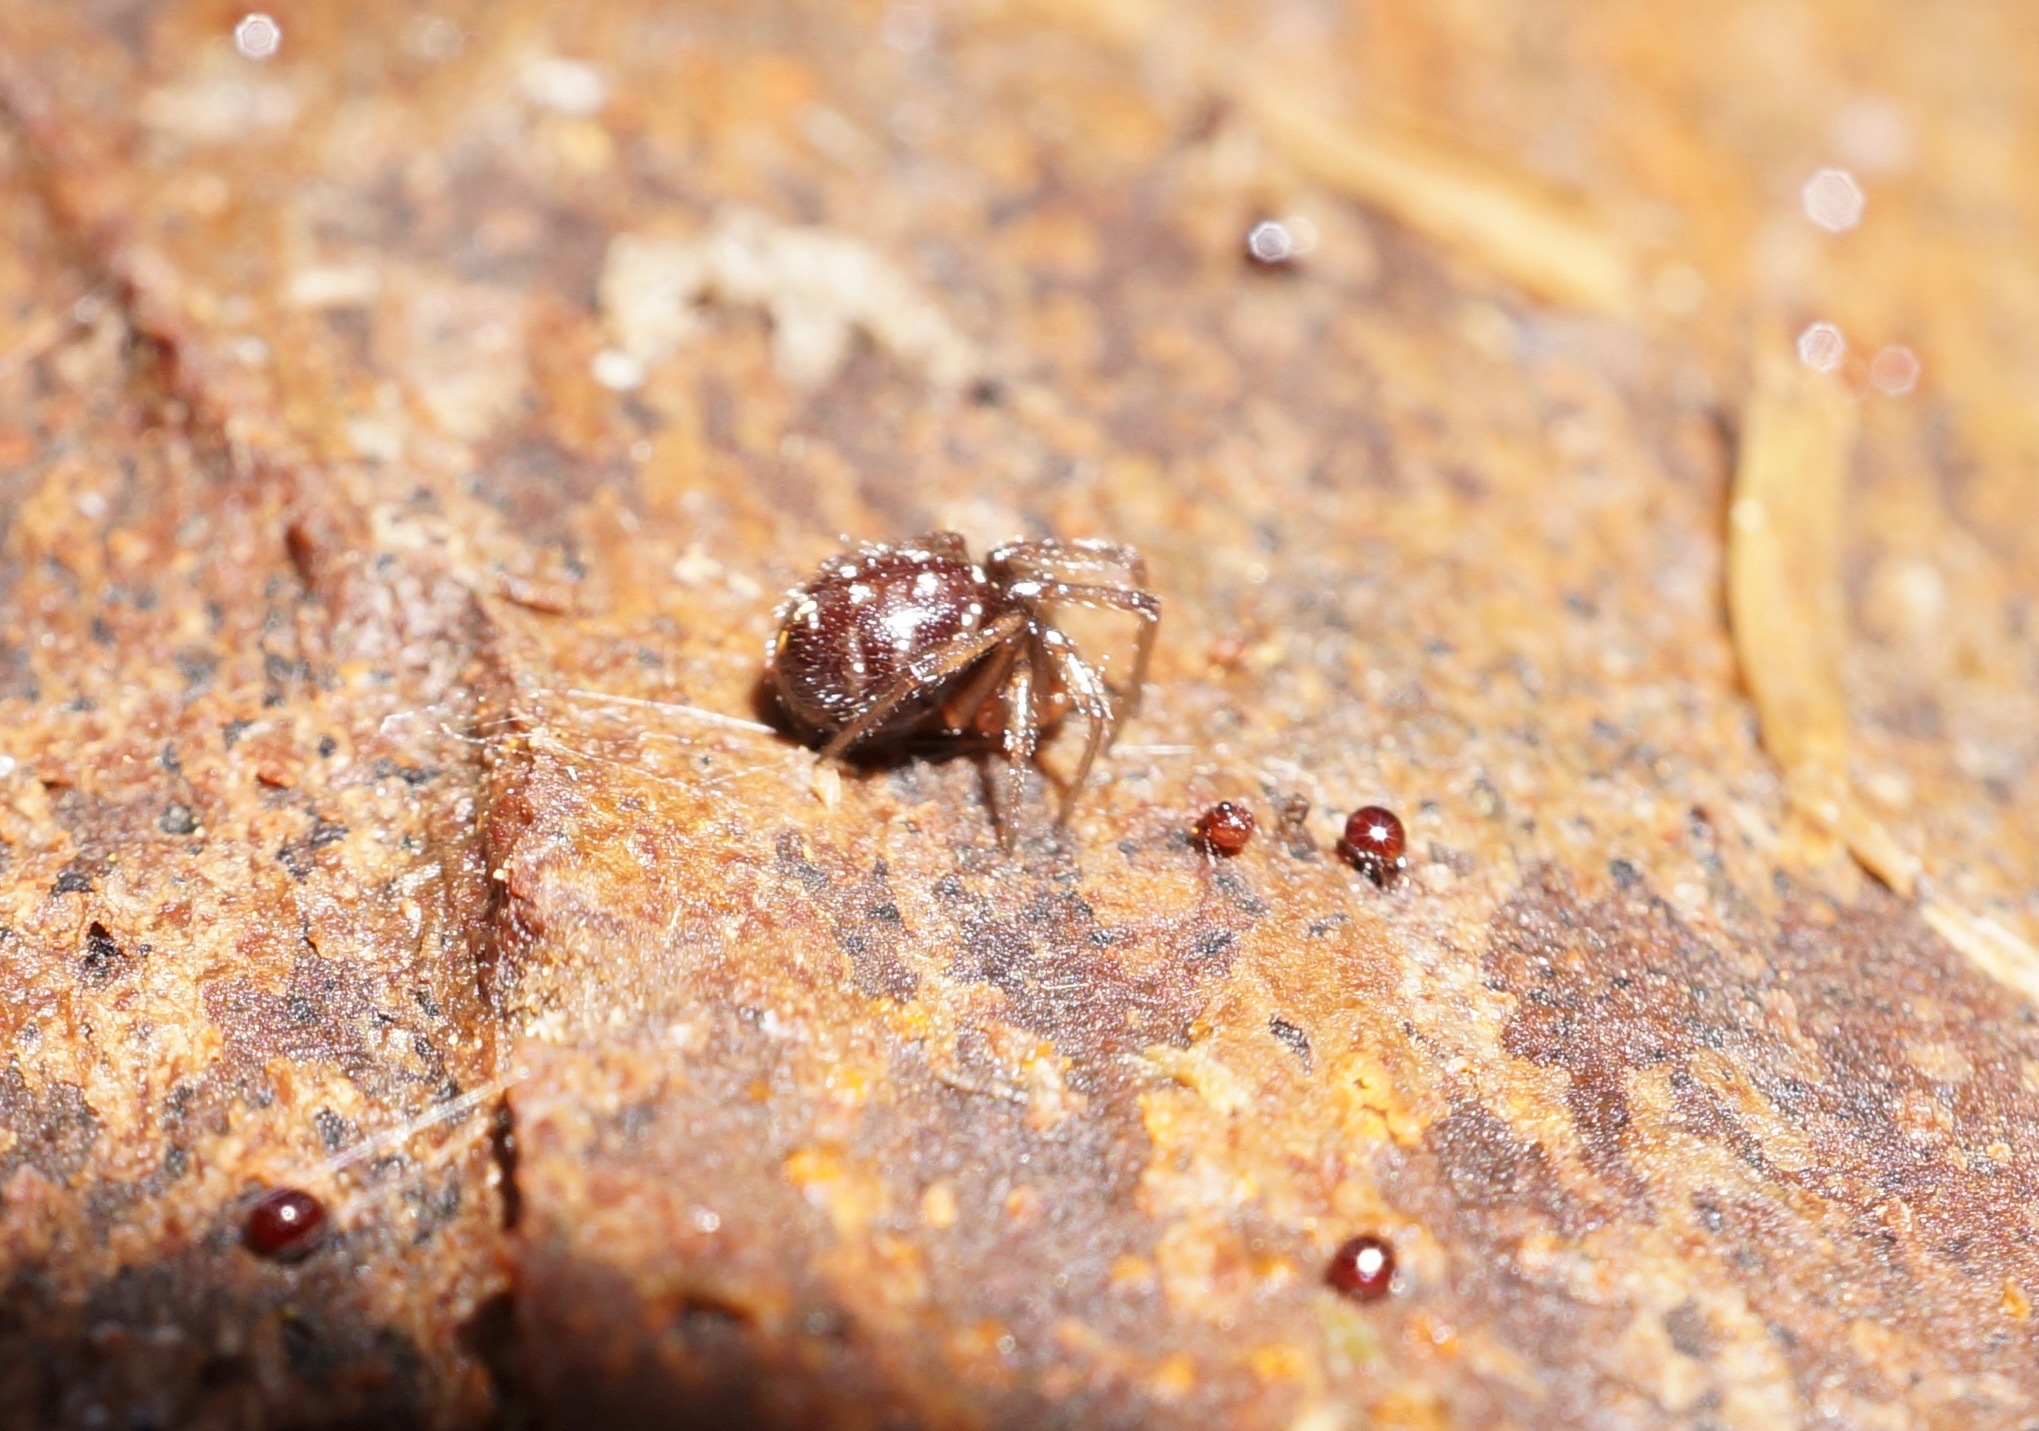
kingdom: Animalia
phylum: Arthropoda
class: Arachnida
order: Araneae
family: Theridiidae
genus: Steatoda
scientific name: Steatoda capensis
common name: Cobweb weaver
